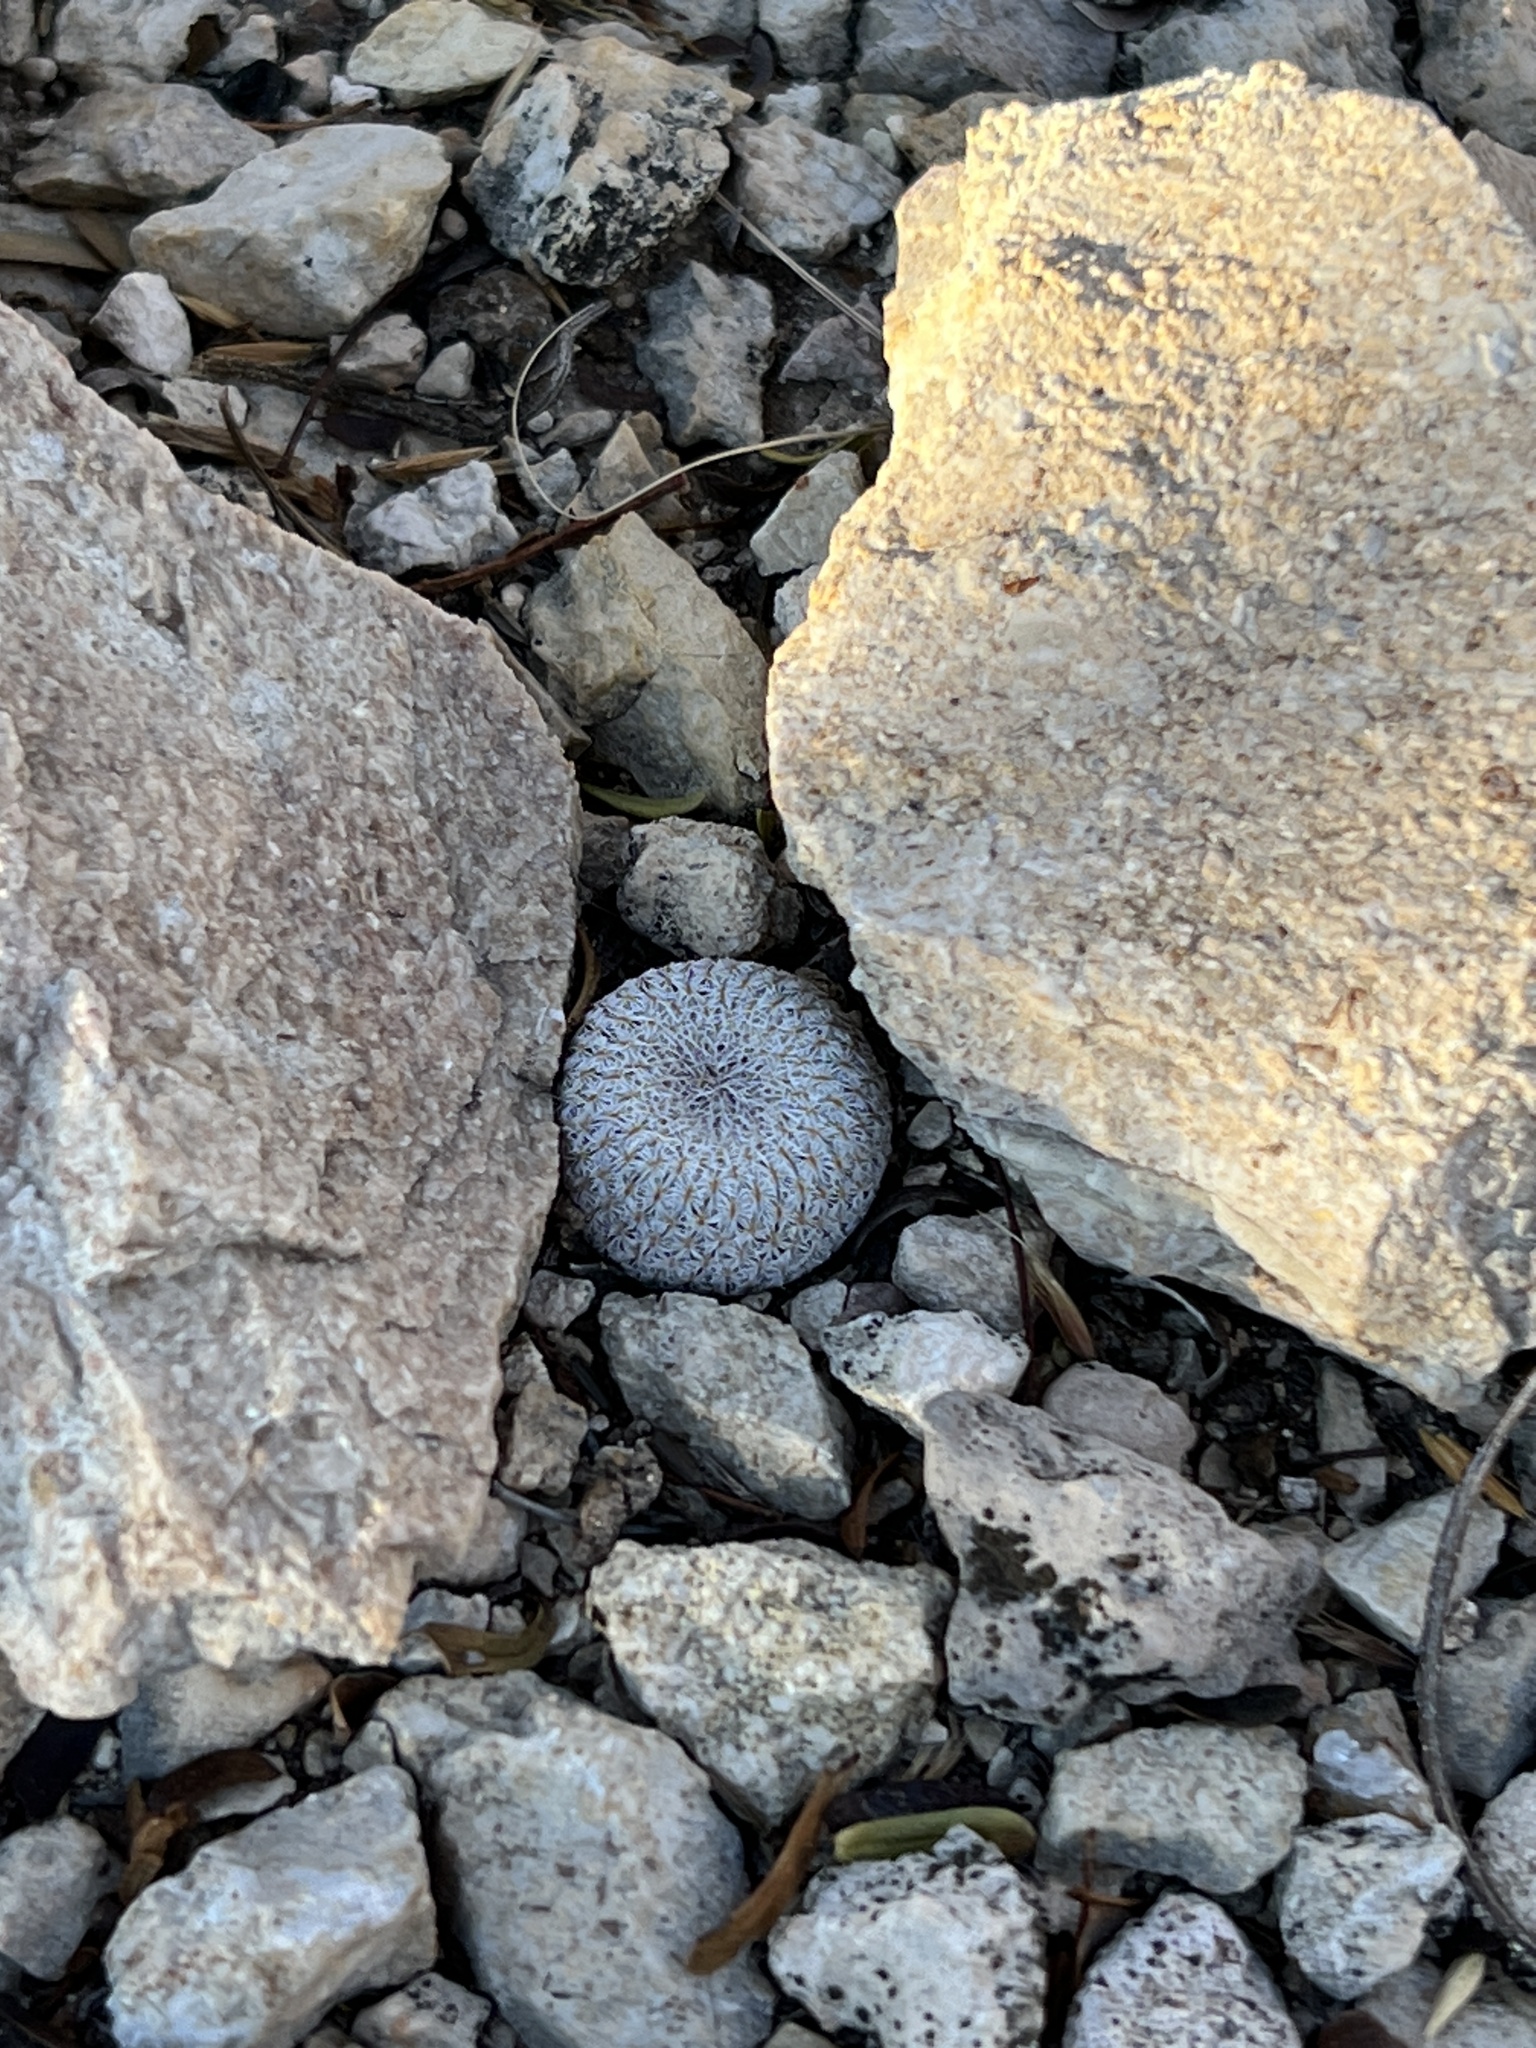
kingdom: Plantae
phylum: Tracheophyta
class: Magnoliopsida
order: Caryophyllales
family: Cactaceae
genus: Epithelantha
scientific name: Epithelantha micromeris
